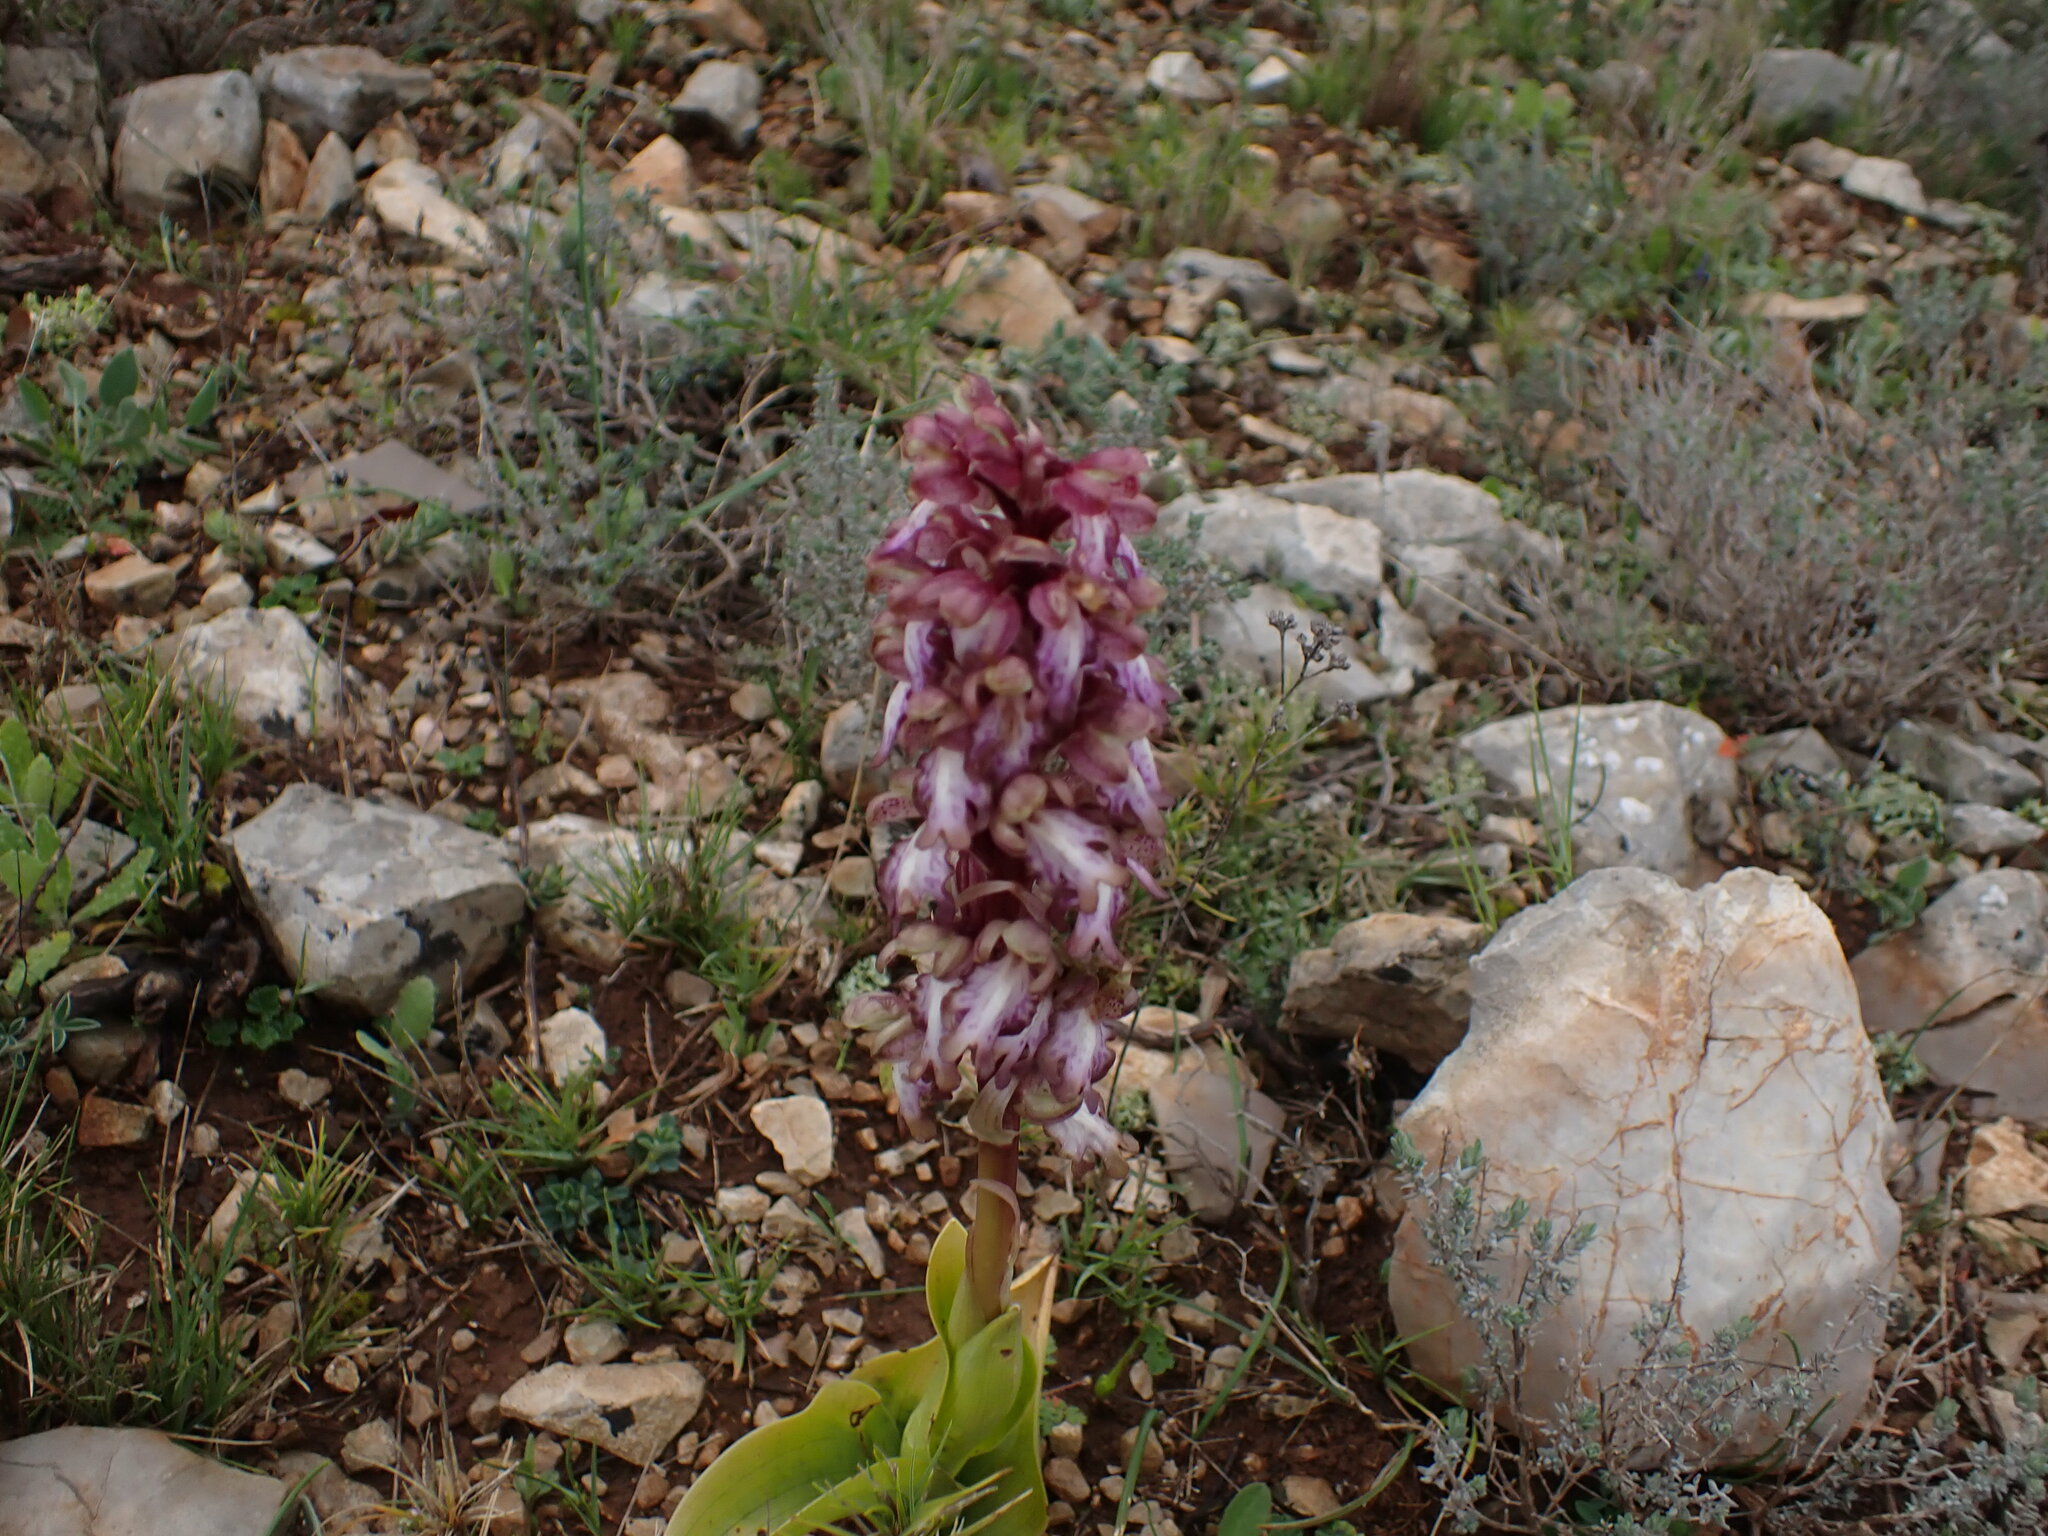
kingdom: Plantae
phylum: Tracheophyta
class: Liliopsida
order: Asparagales
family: Orchidaceae
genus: Himantoglossum
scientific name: Himantoglossum robertianum
